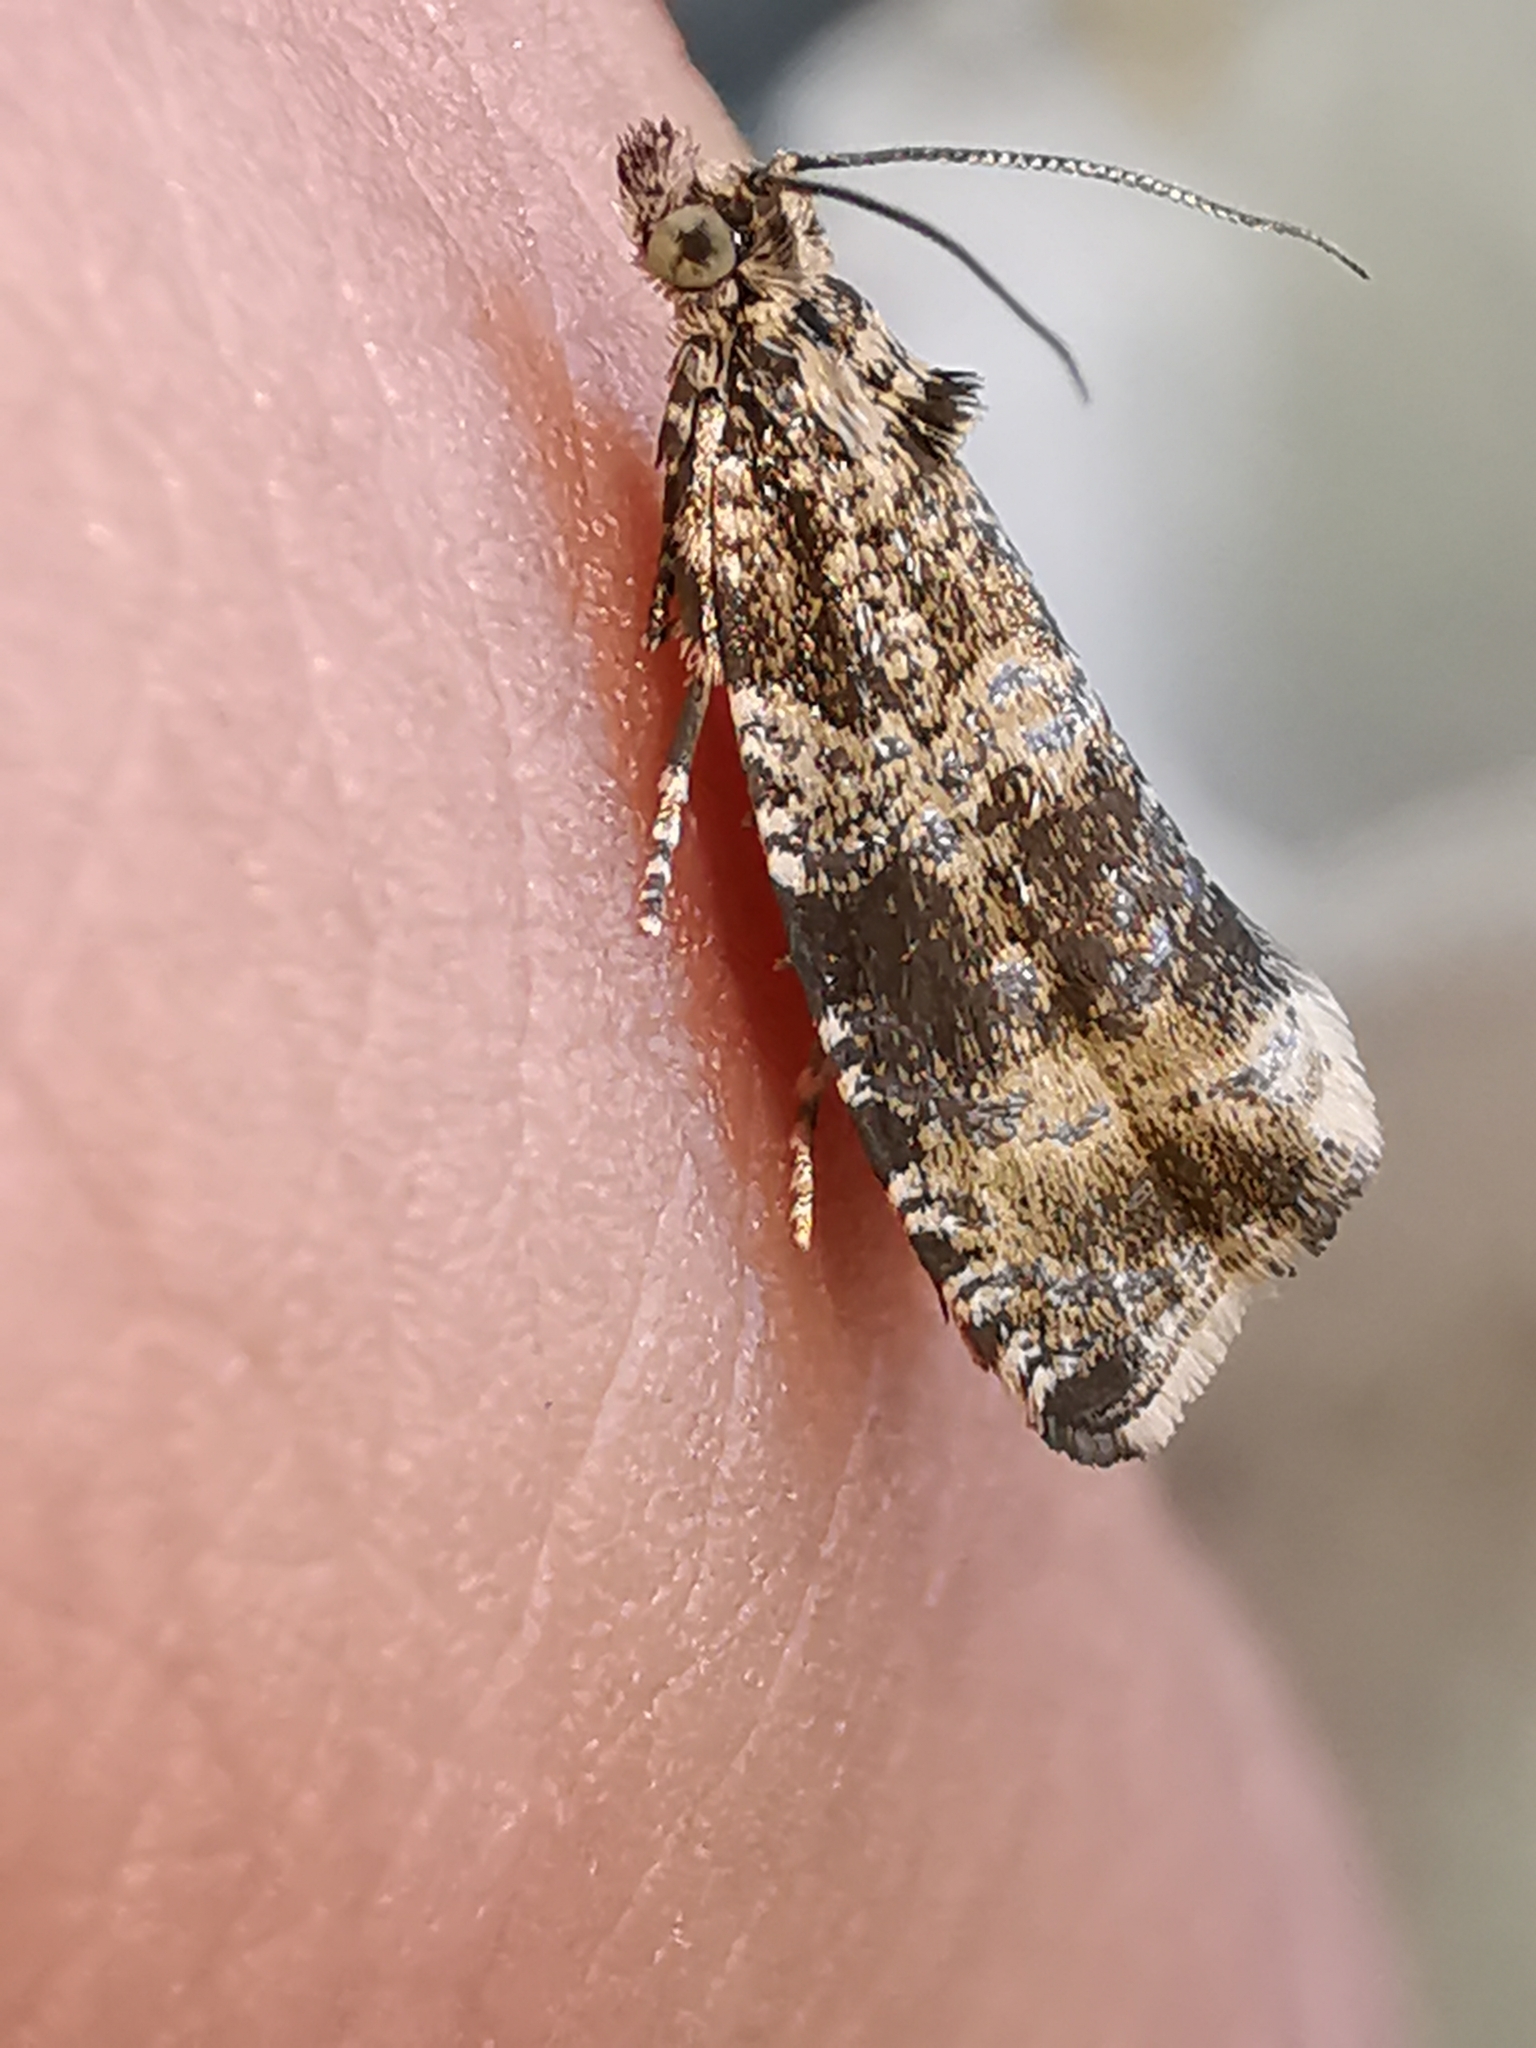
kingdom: Animalia
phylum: Arthropoda
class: Insecta
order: Lepidoptera
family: Tortricidae
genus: Syricoris
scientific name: Syricoris lacunana
